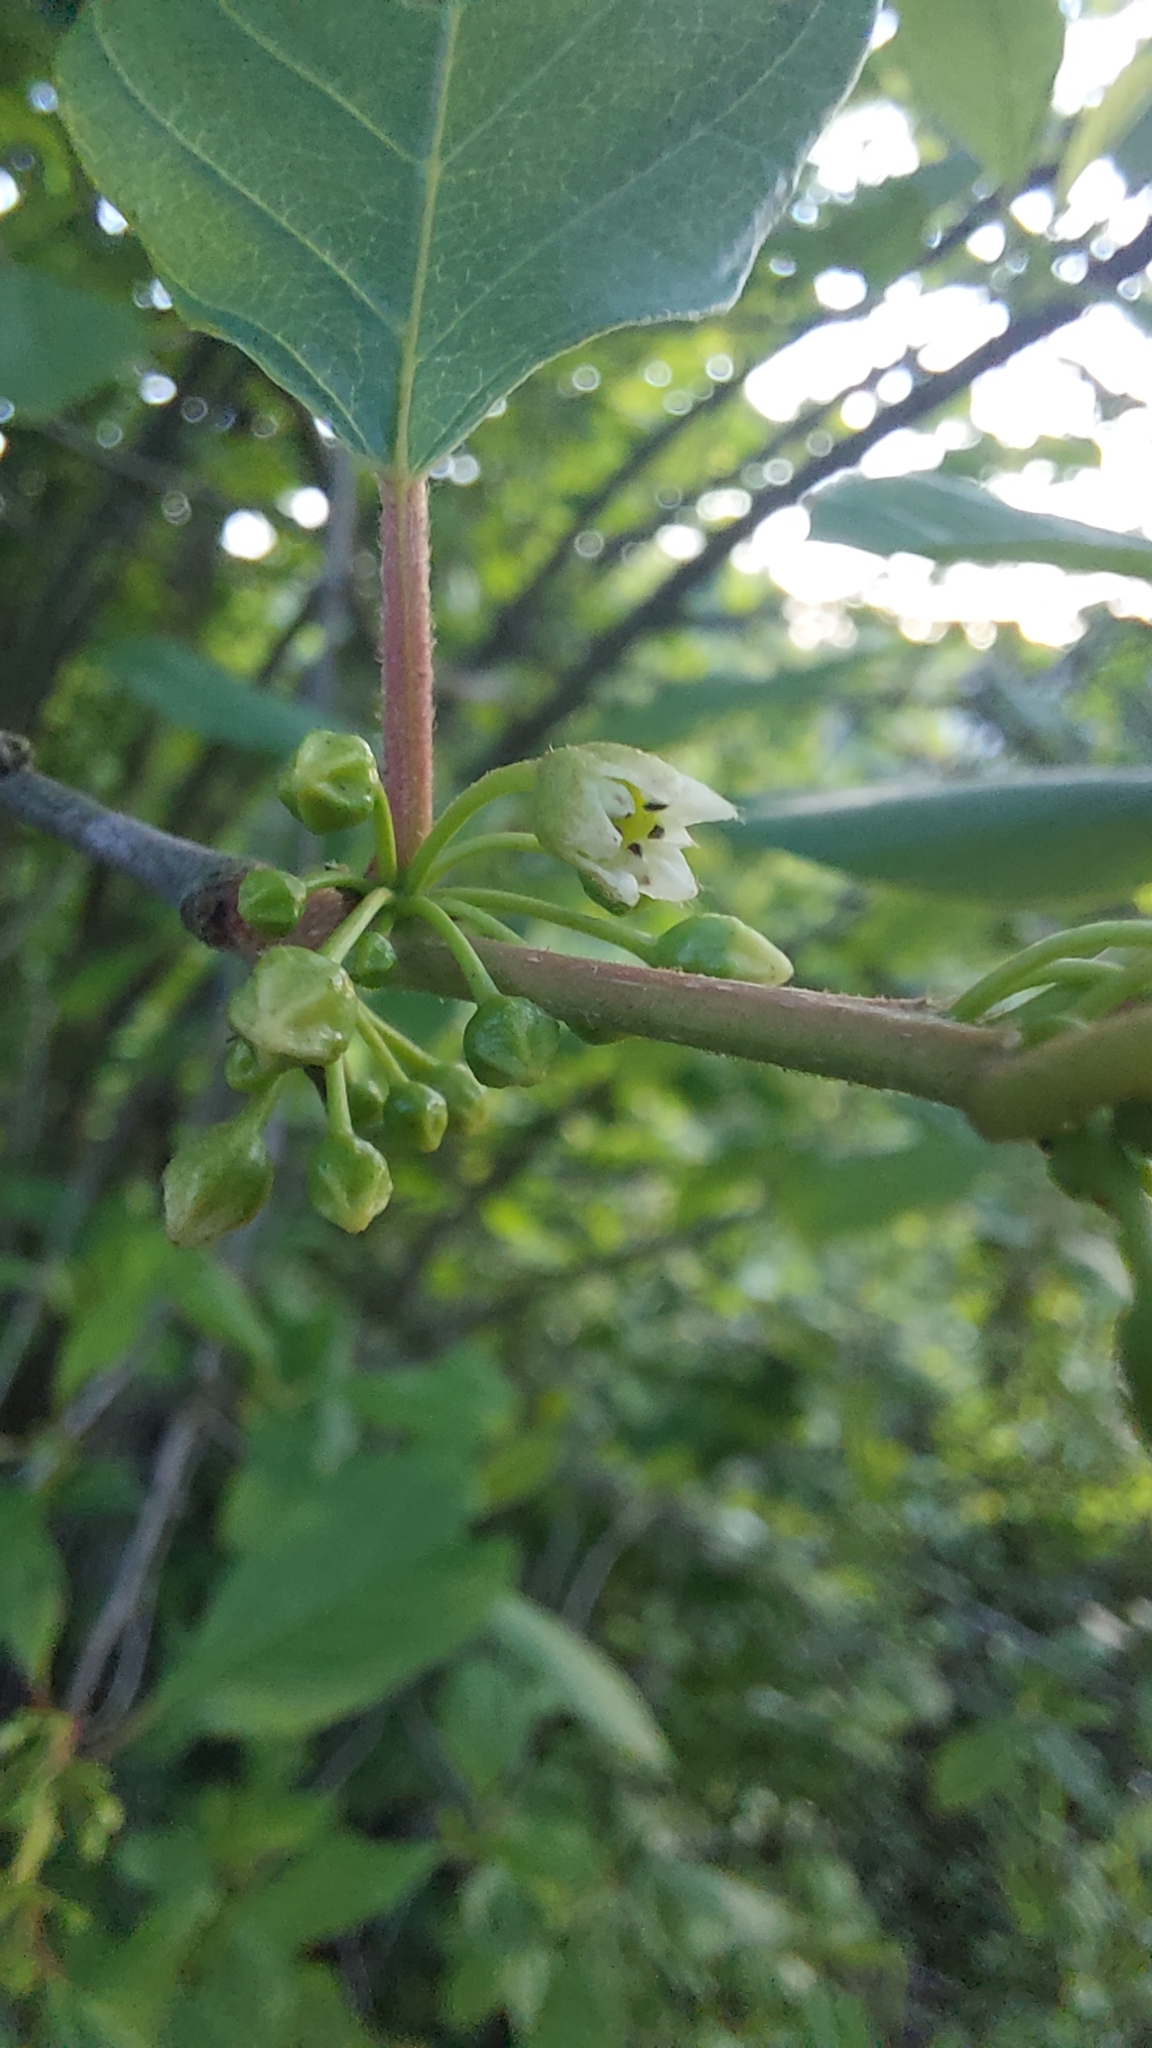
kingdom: Plantae
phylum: Tracheophyta
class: Magnoliopsida
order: Rosales
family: Rhamnaceae
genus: Frangula
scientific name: Frangula alnus
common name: Alder buckthorn
